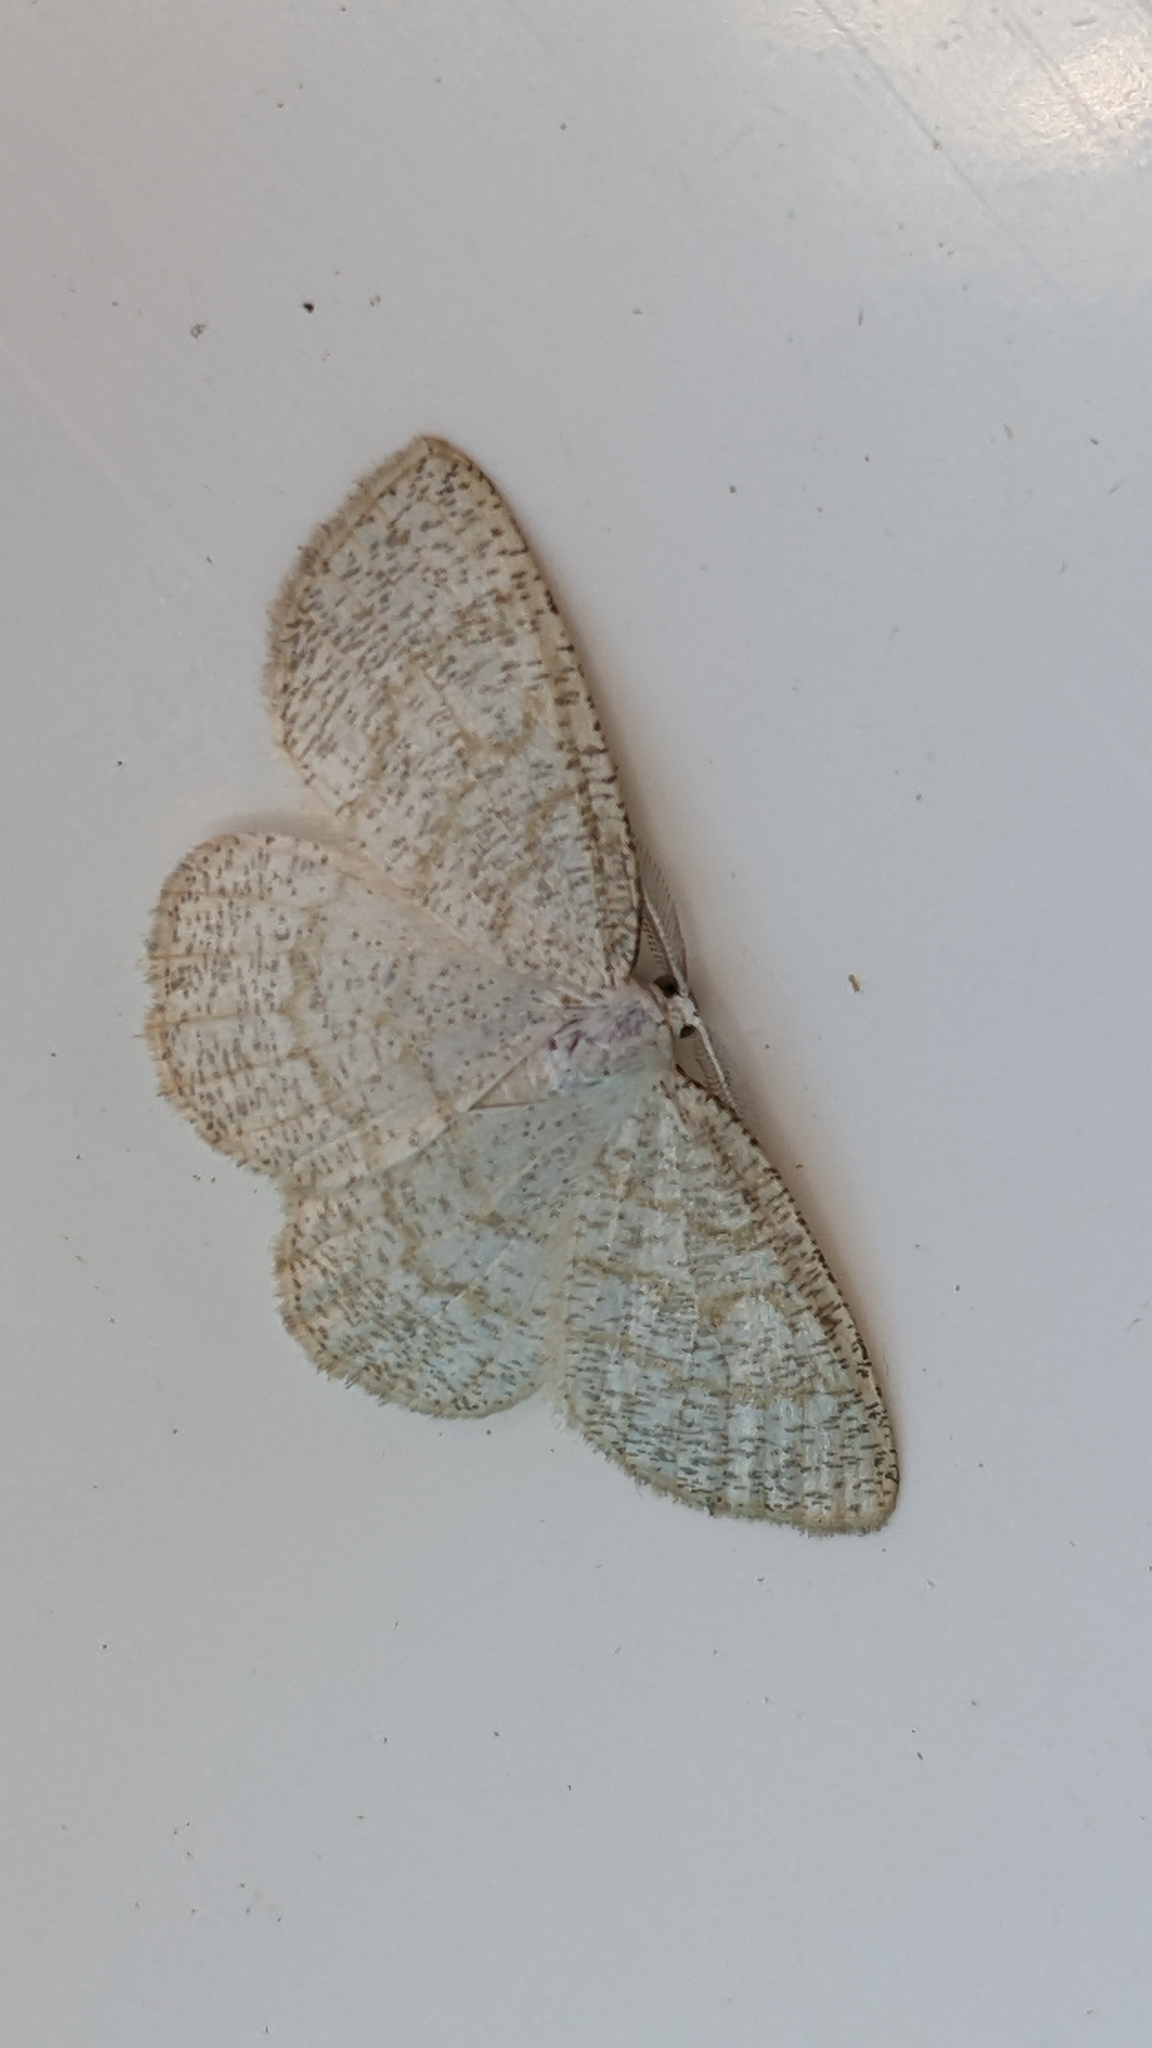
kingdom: Animalia
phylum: Arthropoda
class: Insecta
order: Lepidoptera
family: Geometridae
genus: Cabera
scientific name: Cabera exanthemata
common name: Common wave
